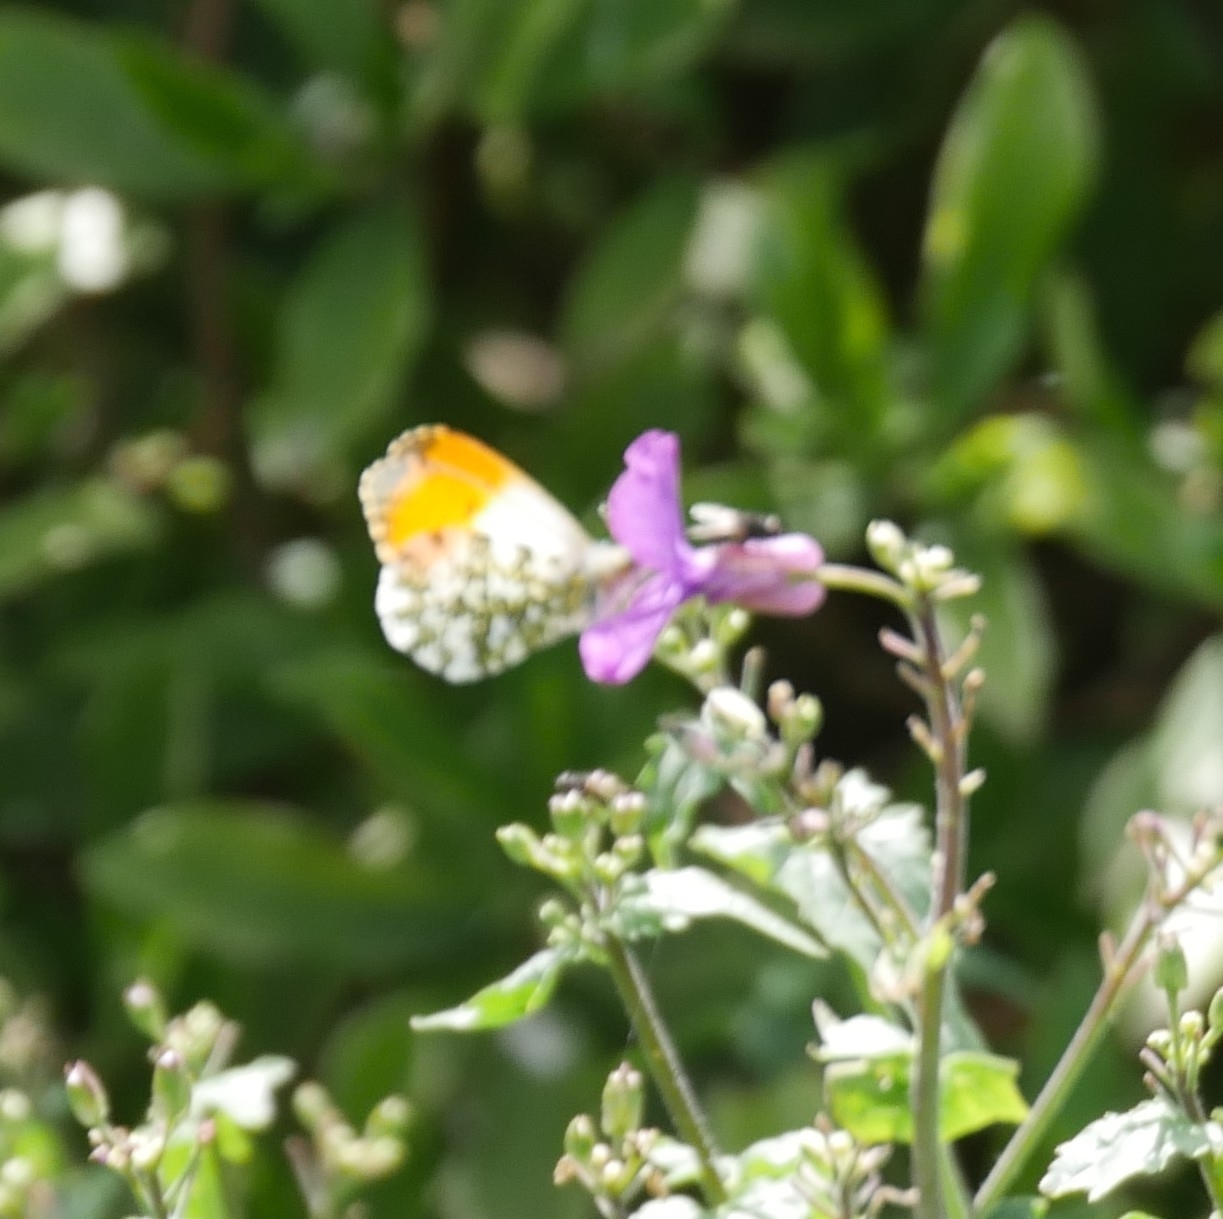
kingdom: Animalia
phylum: Arthropoda
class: Insecta
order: Lepidoptera
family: Pieridae
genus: Anthocharis
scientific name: Anthocharis cardamines
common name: Orange-tip
